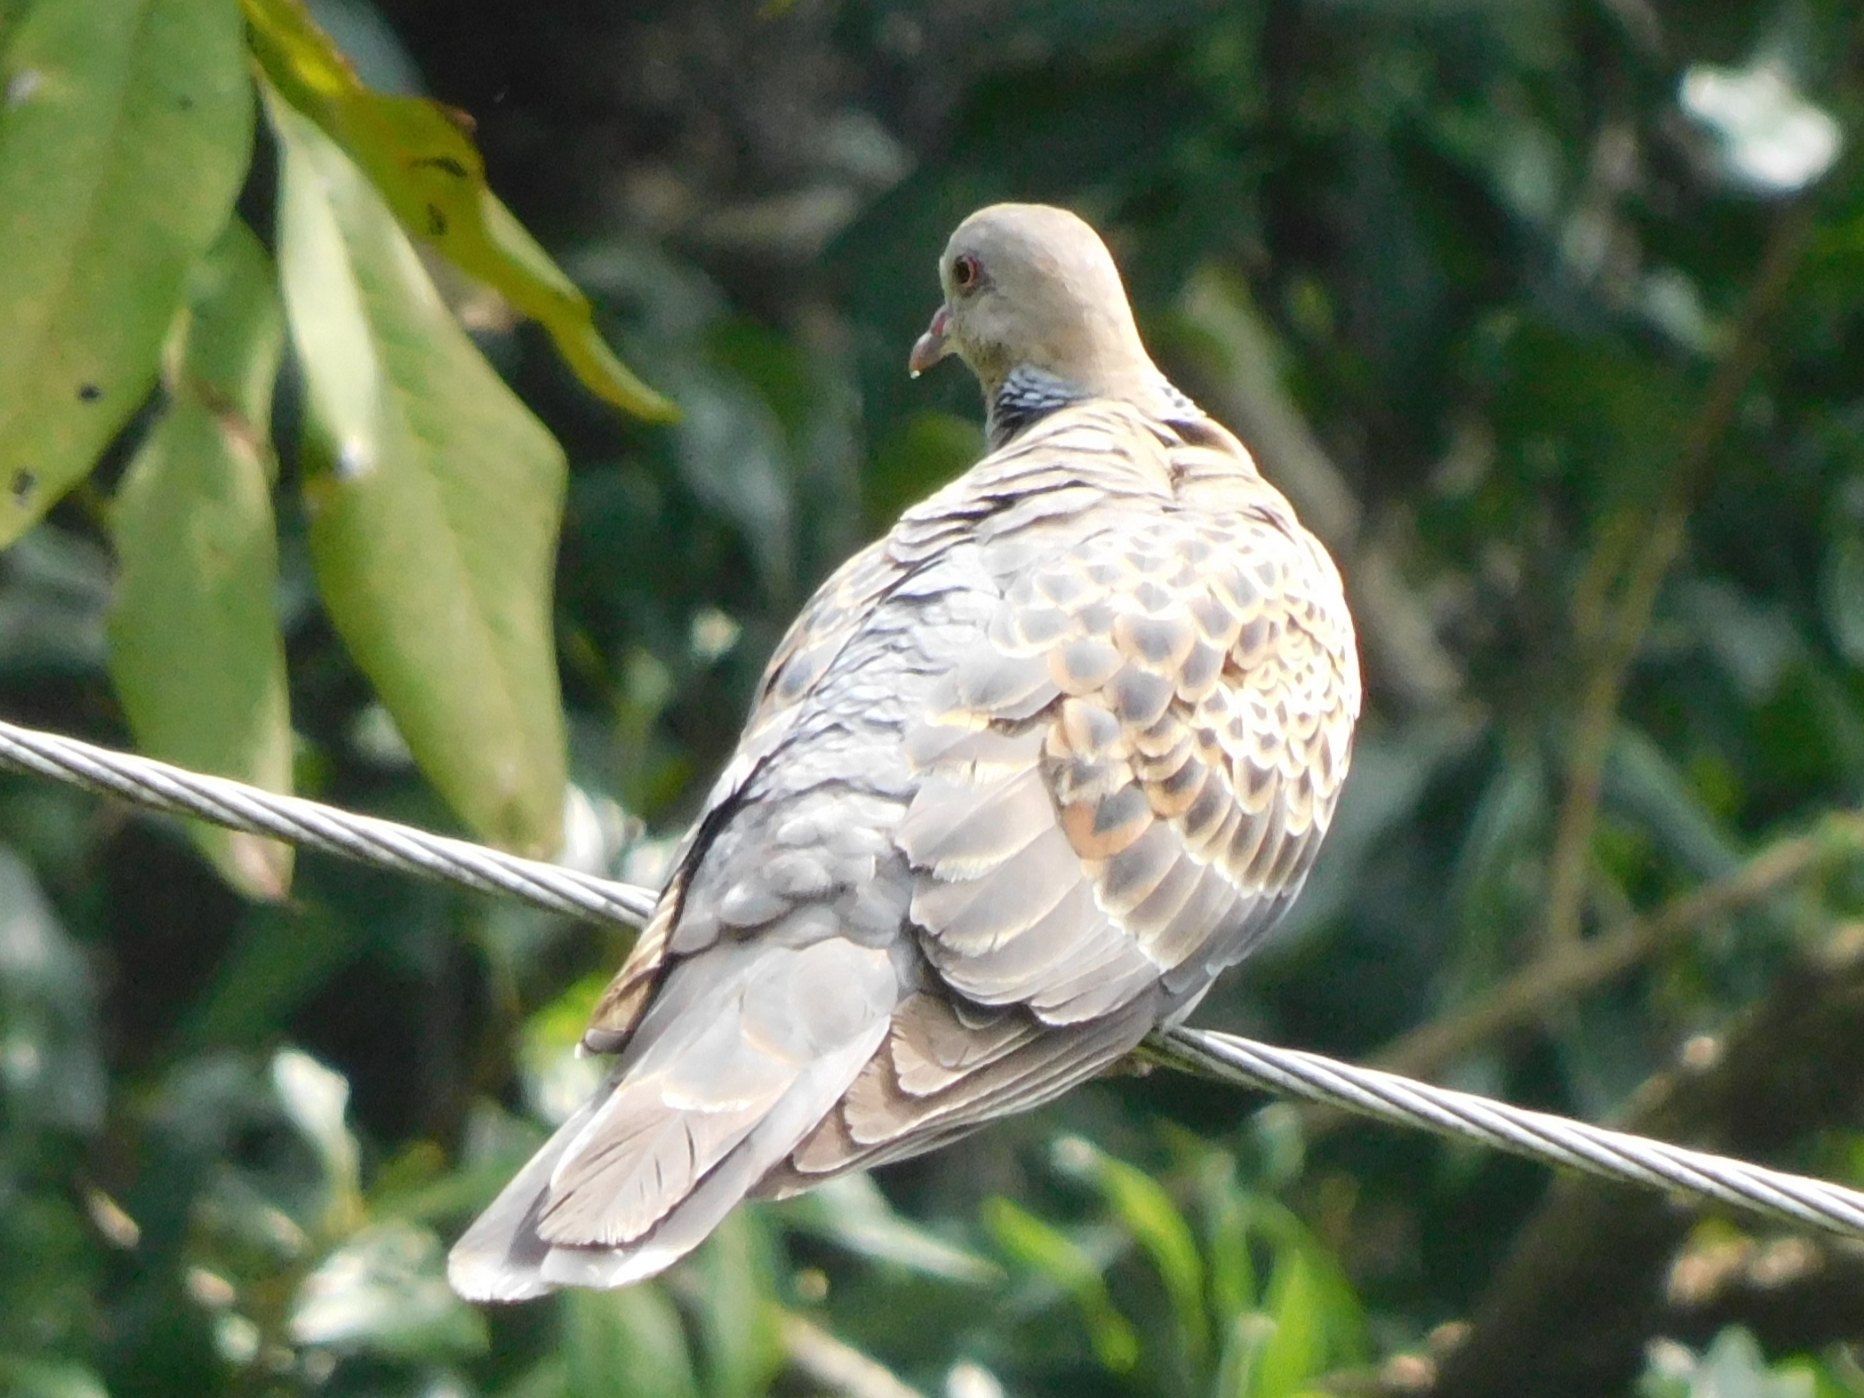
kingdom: Animalia
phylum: Chordata
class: Aves
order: Columbiformes
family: Columbidae
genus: Streptopelia
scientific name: Streptopelia orientalis
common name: Oriental turtle dove
